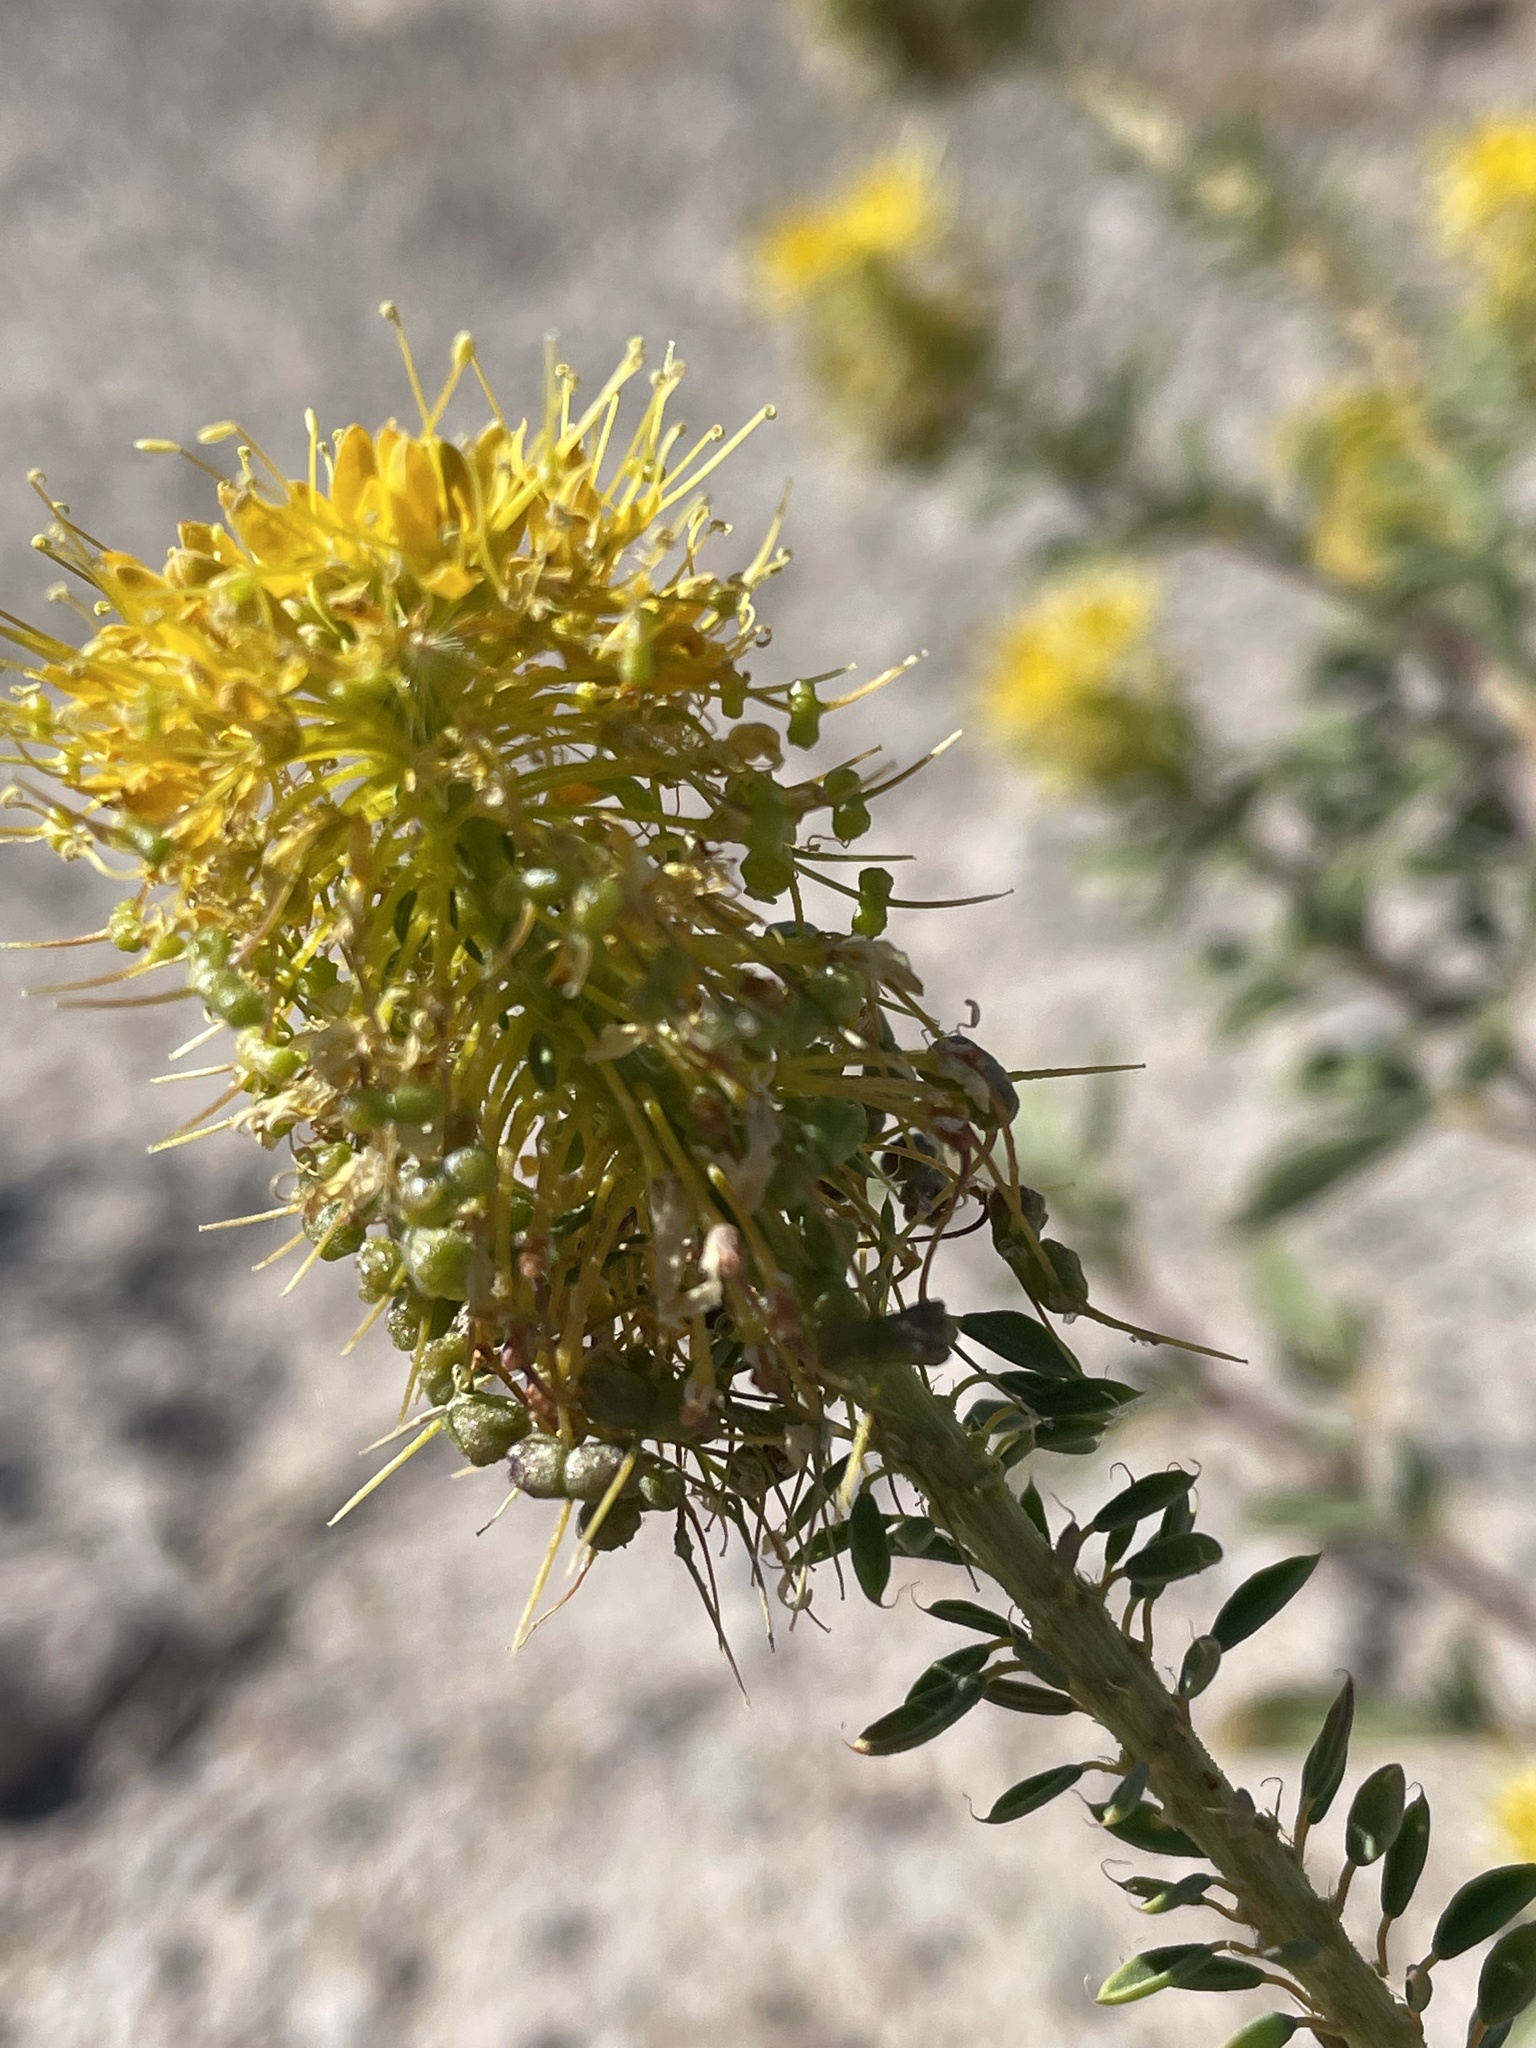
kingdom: Plantae
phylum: Tracheophyta
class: Magnoliopsida
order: Brassicales
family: Cleomaceae
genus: Cleomella
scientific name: Cleomella refracta
